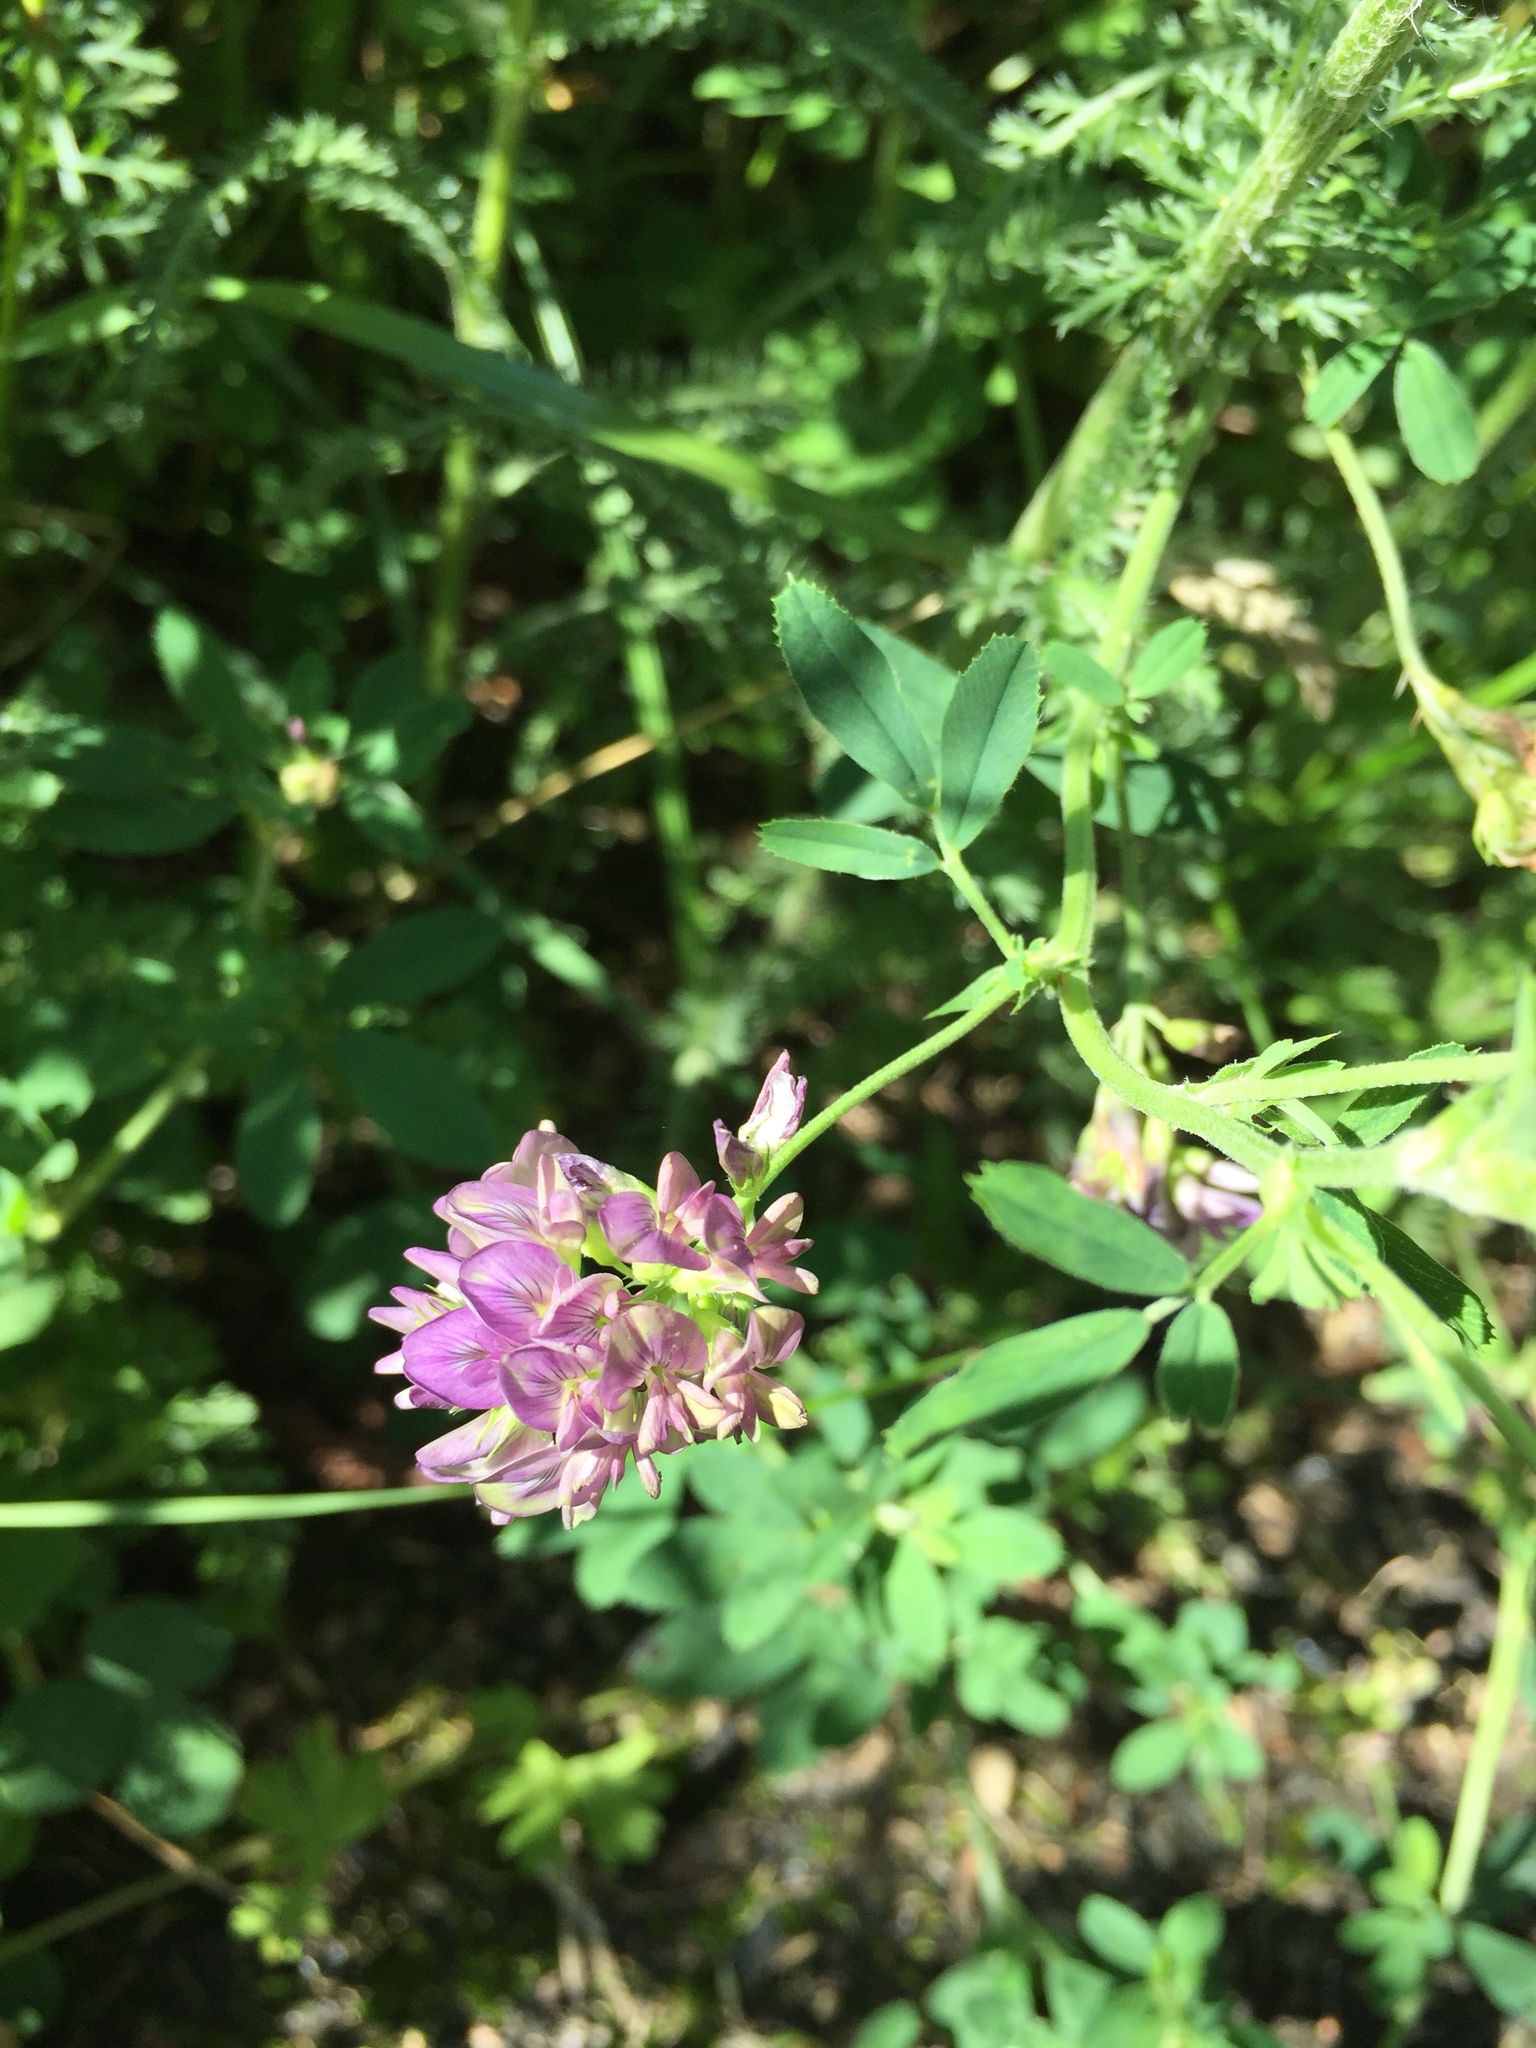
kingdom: Plantae
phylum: Tracheophyta
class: Magnoliopsida
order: Fabales
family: Fabaceae
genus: Medicago
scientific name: Medicago sativa
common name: Alfalfa
